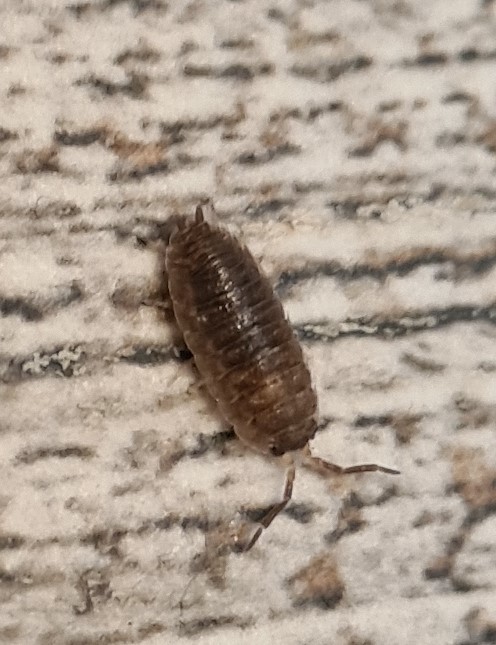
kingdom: Animalia
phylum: Arthropoda
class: Malacostraca
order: Isopoda
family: Porcellionidae
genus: Porcellio
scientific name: Porcellio scaber
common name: Common rough woodlouse
